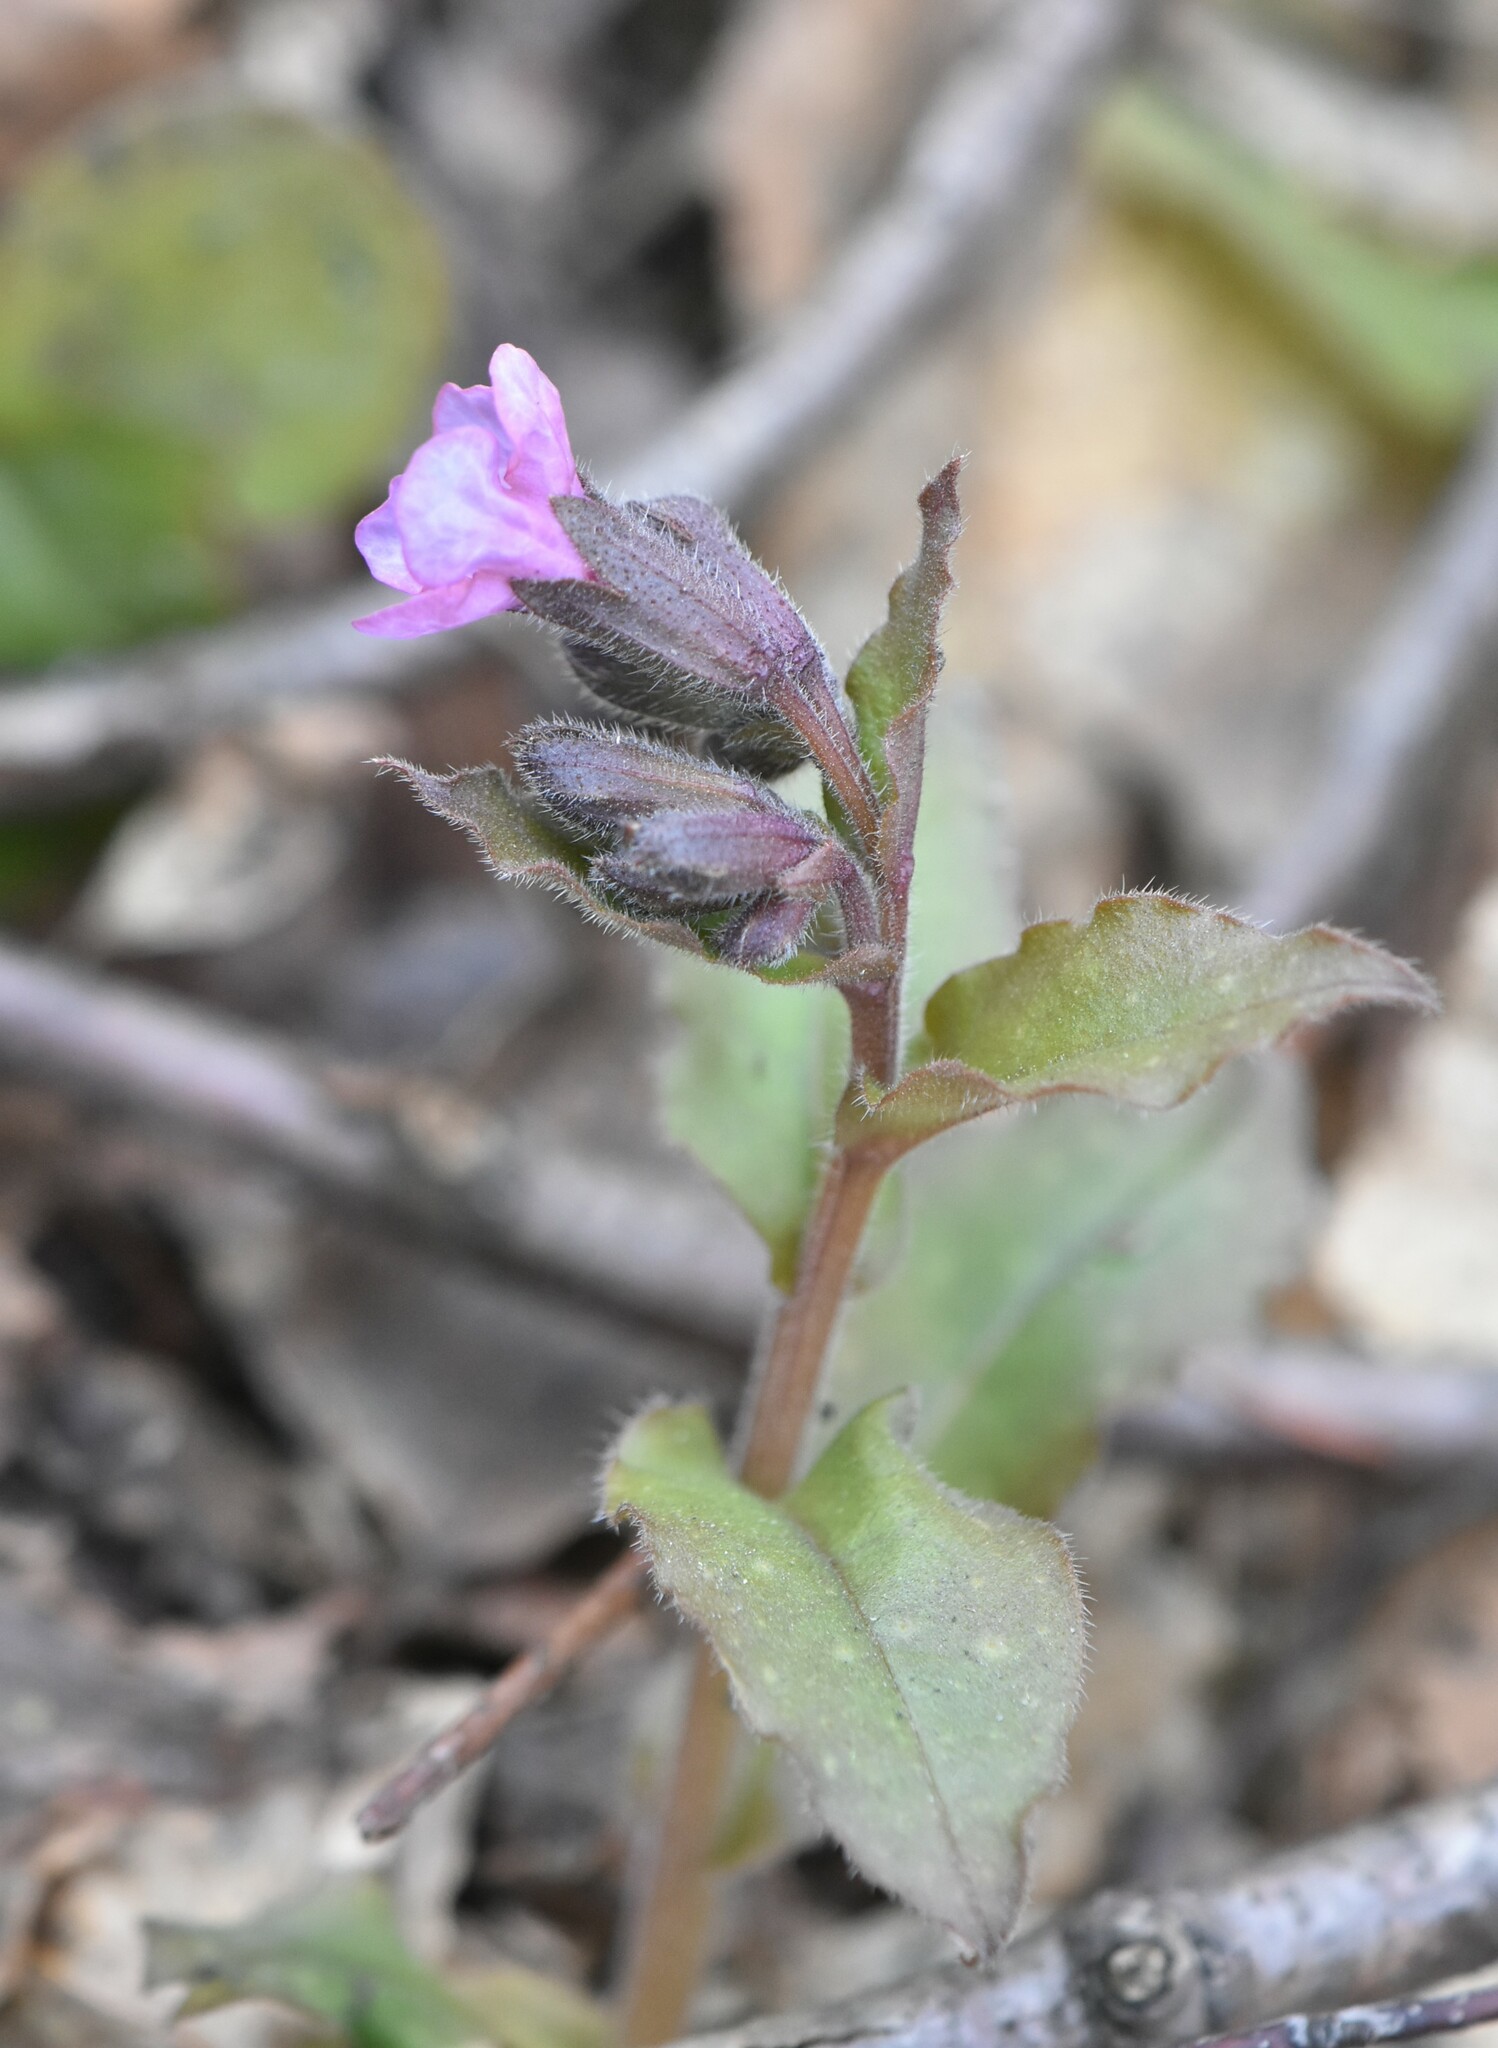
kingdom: Plantae
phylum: Tracheophyta
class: Magnoliopsida
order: Boraginales
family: Boraginaceae
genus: Pulmonaria
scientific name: Pulmonaria obscura
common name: Suffolk lungwort
